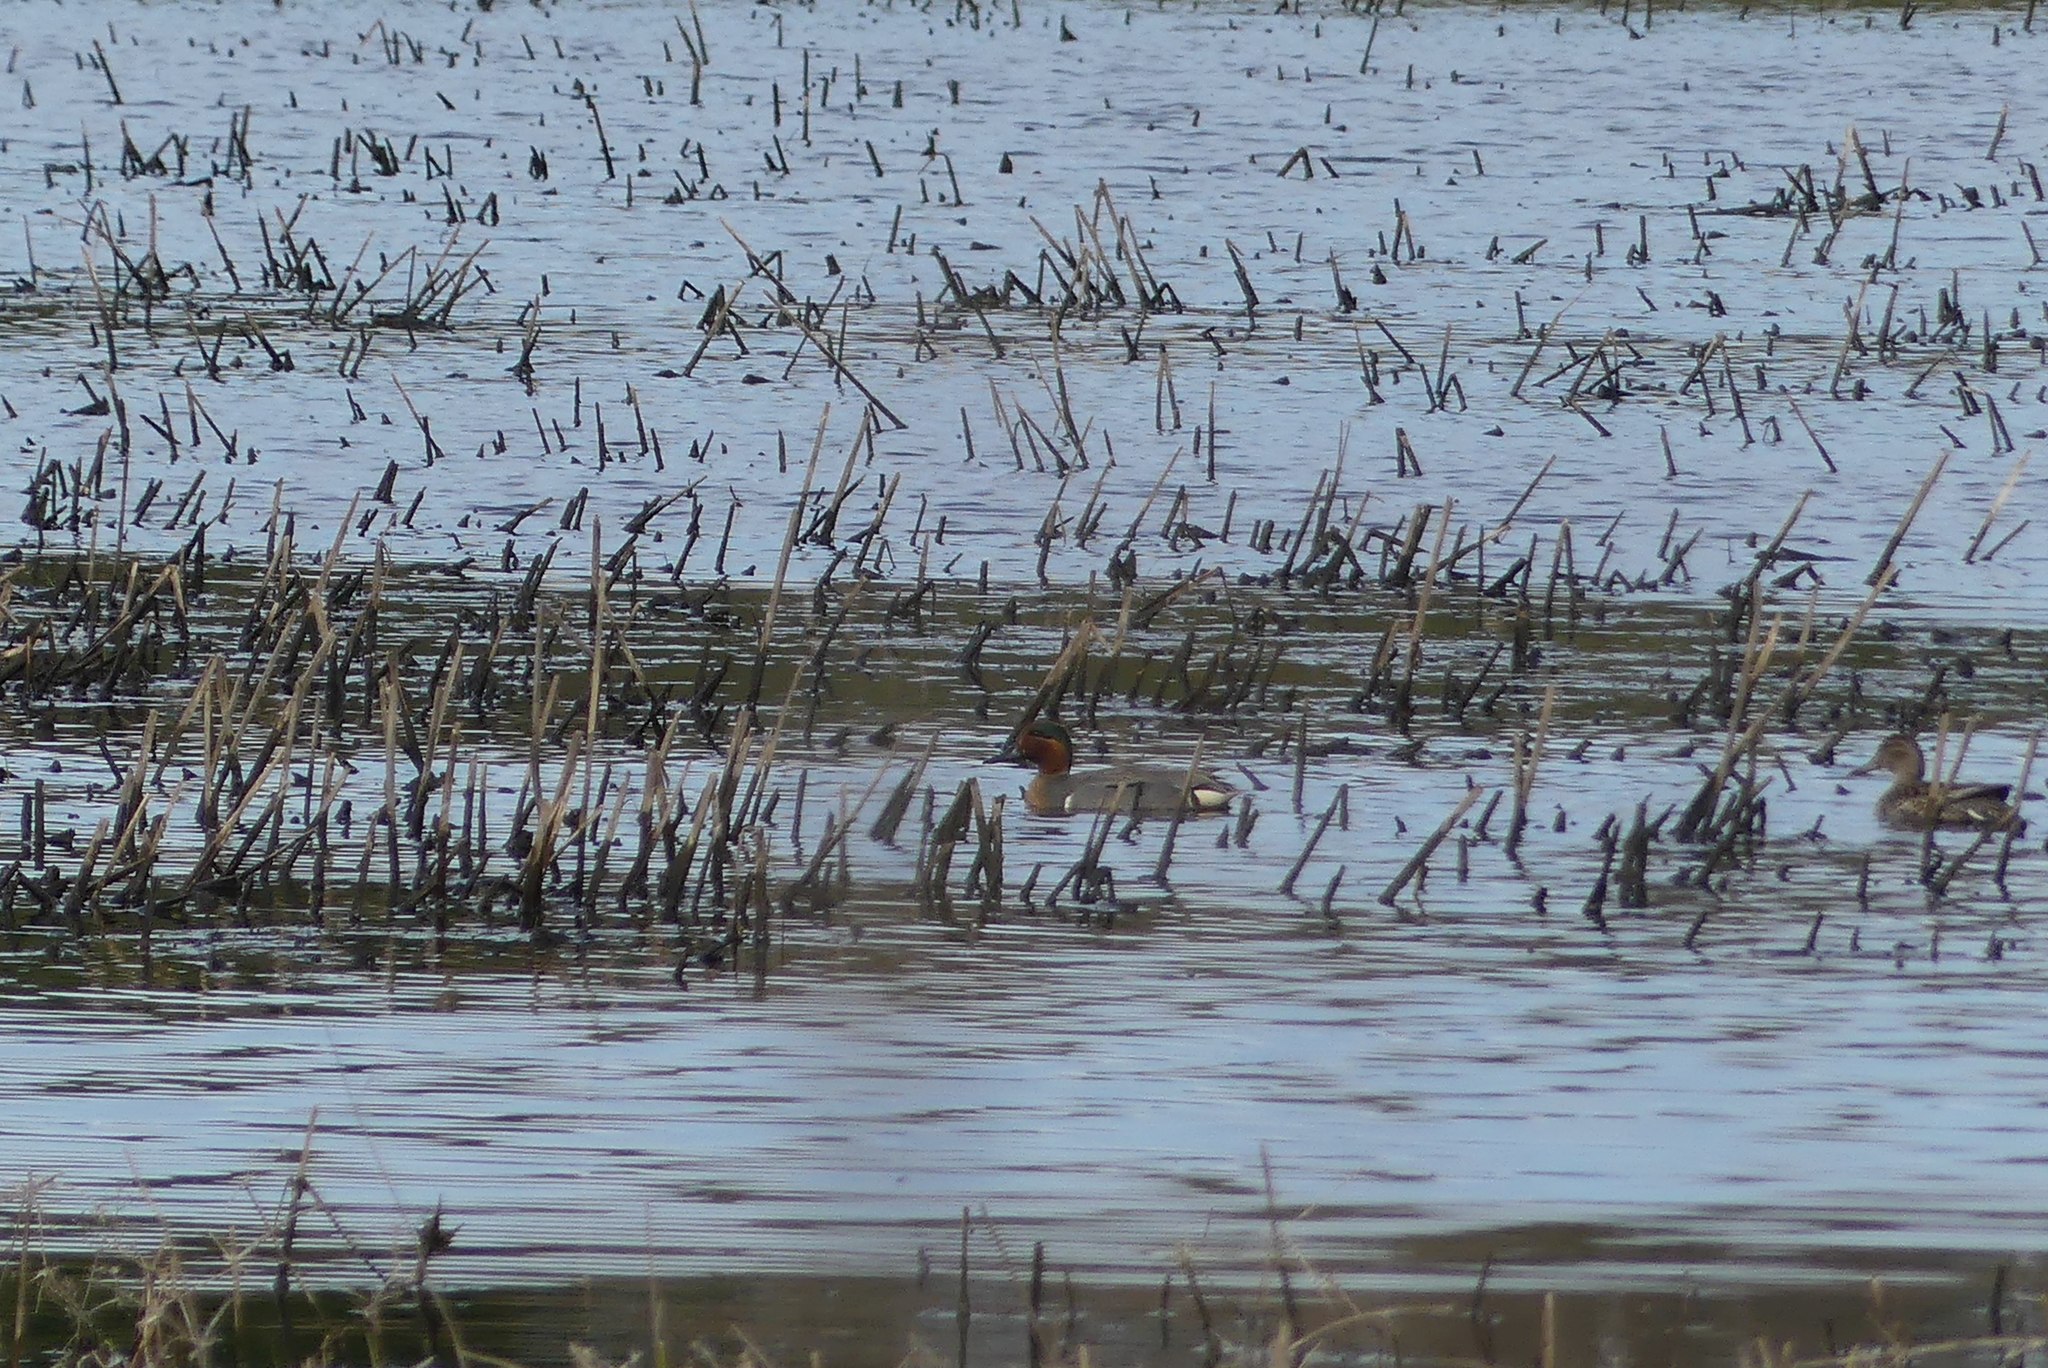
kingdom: Animalia
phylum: Chordata
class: Aves
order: Anseriformes
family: Anatidae
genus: Anas
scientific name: Anas crecca
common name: Eurasian teal
